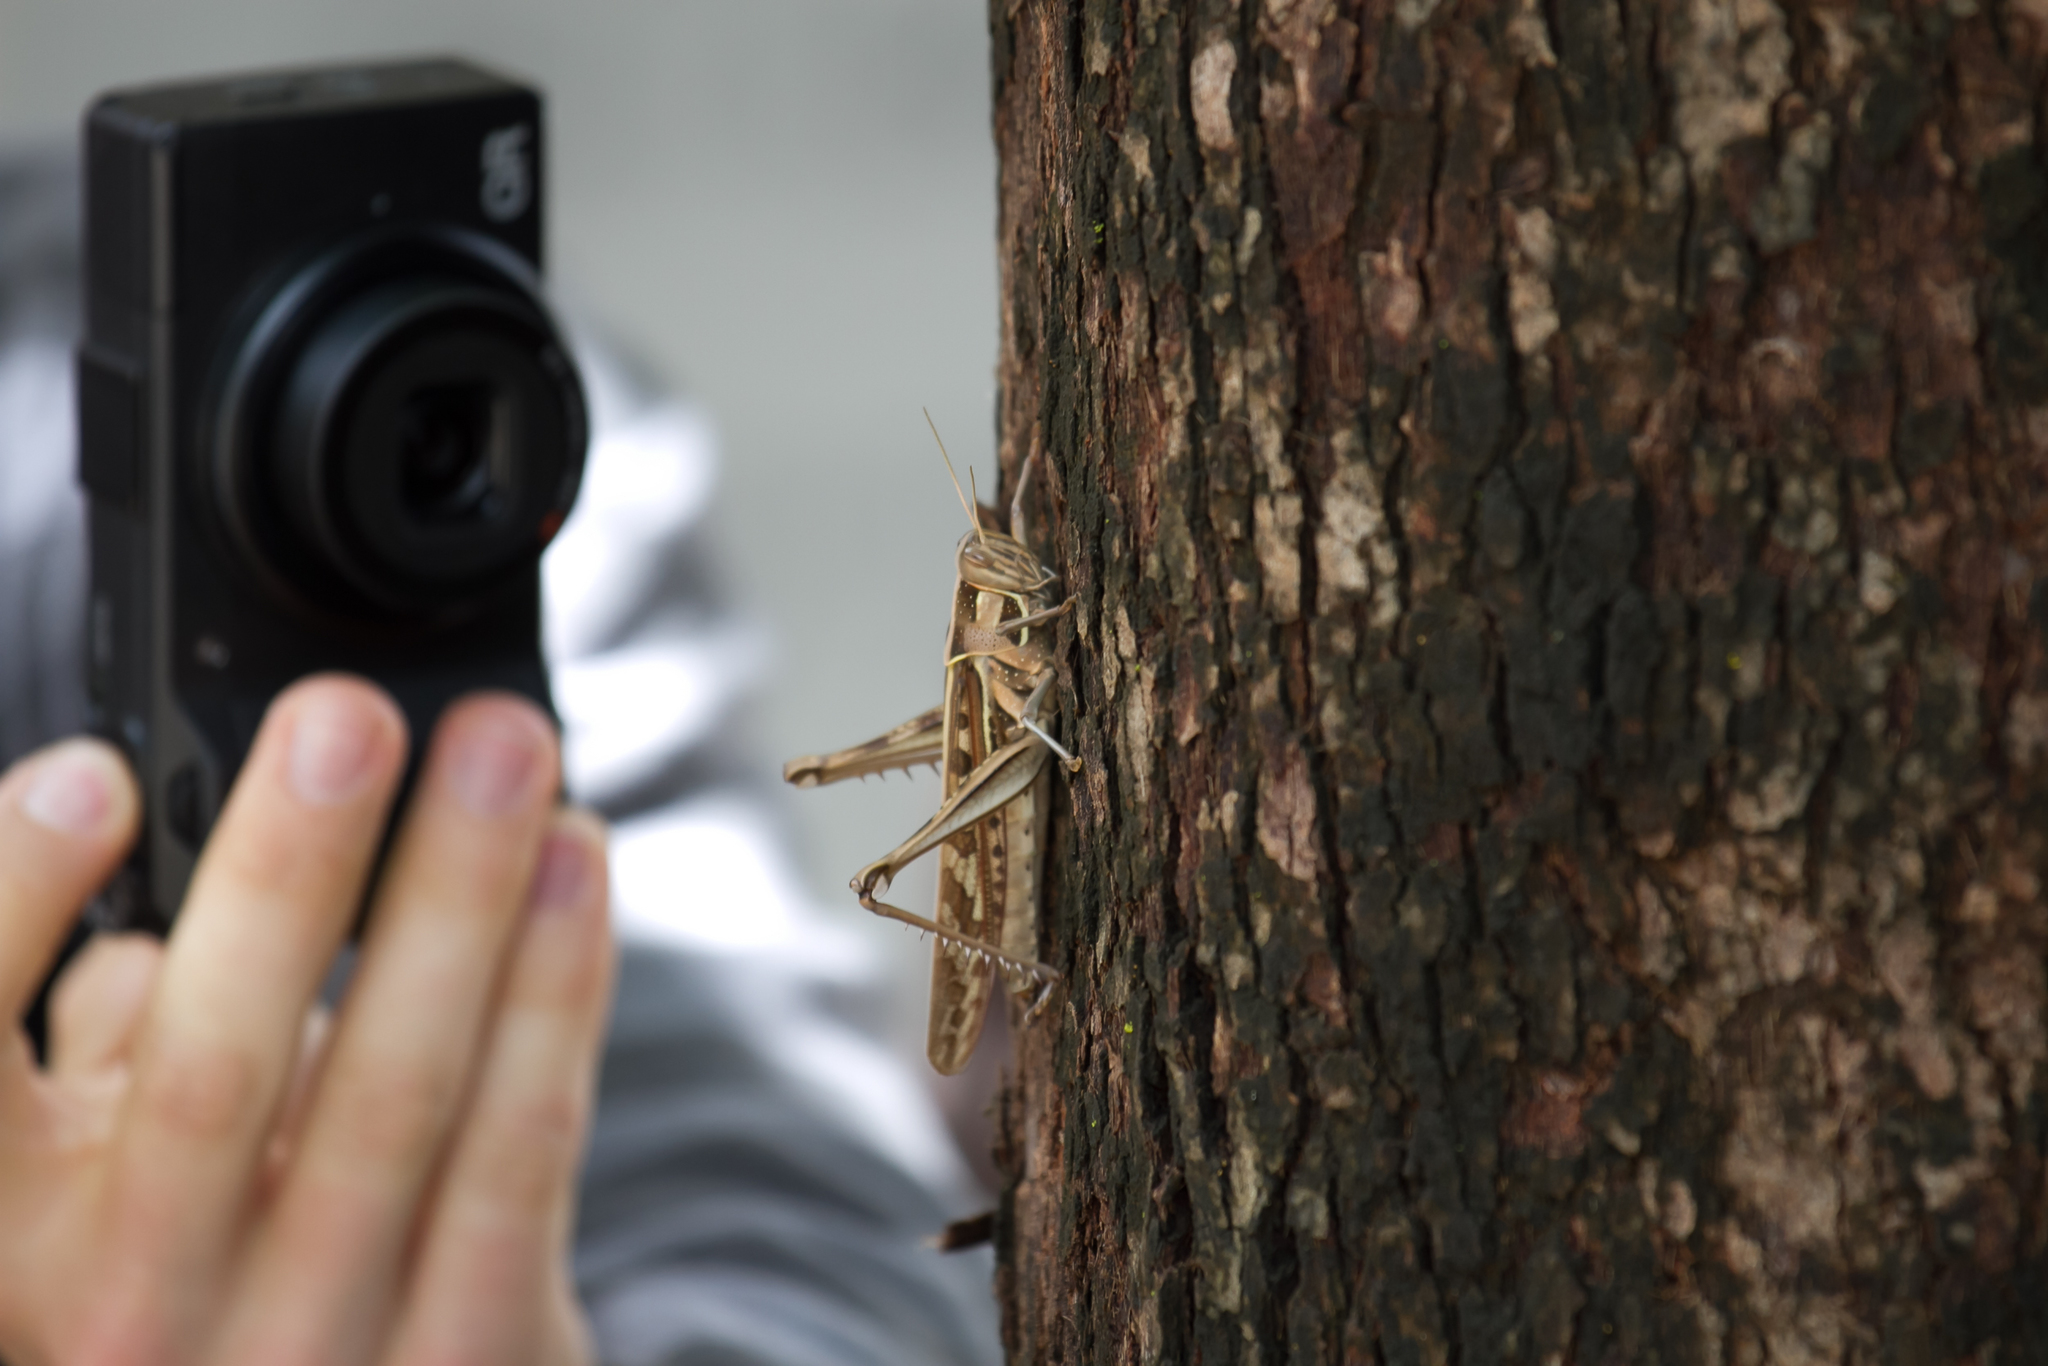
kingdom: Animalia
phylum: Arthropoda
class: Insecta
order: Orthoptera
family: Acrididae
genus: Cyrtacanthacris
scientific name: Cyrtacanthacris tatarica
